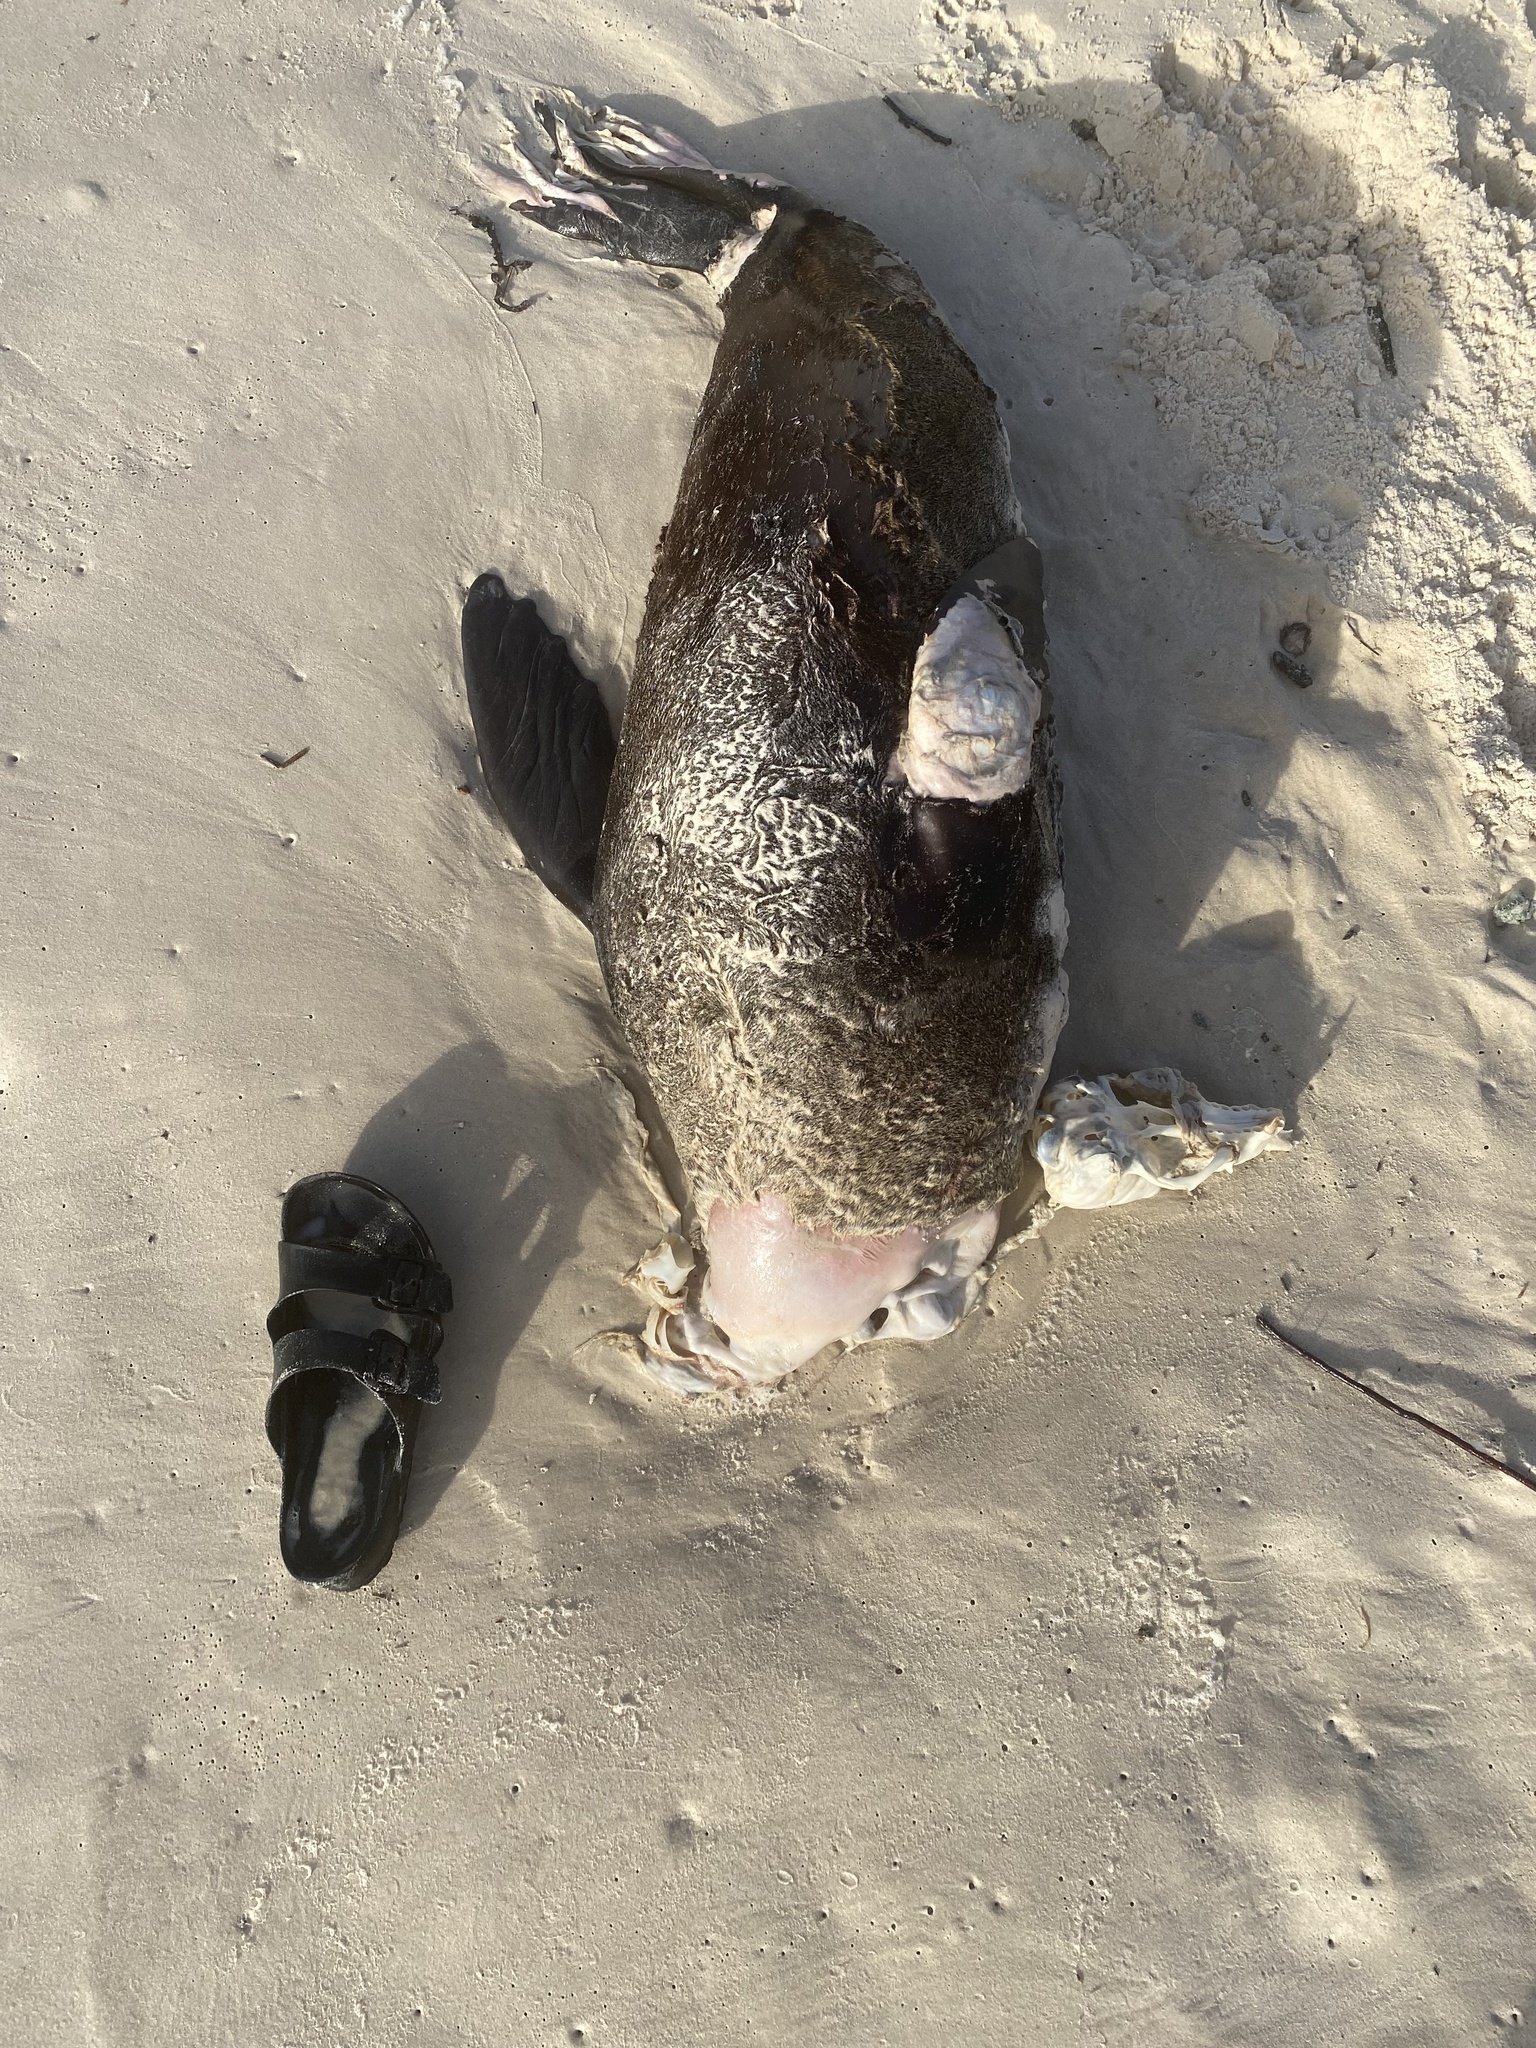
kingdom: Animalia
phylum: Chordata
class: Mammalia
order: Carnivora
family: Otariidae
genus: Arctocephalus
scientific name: Arctocephalus pusillus
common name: Brown fur seal
